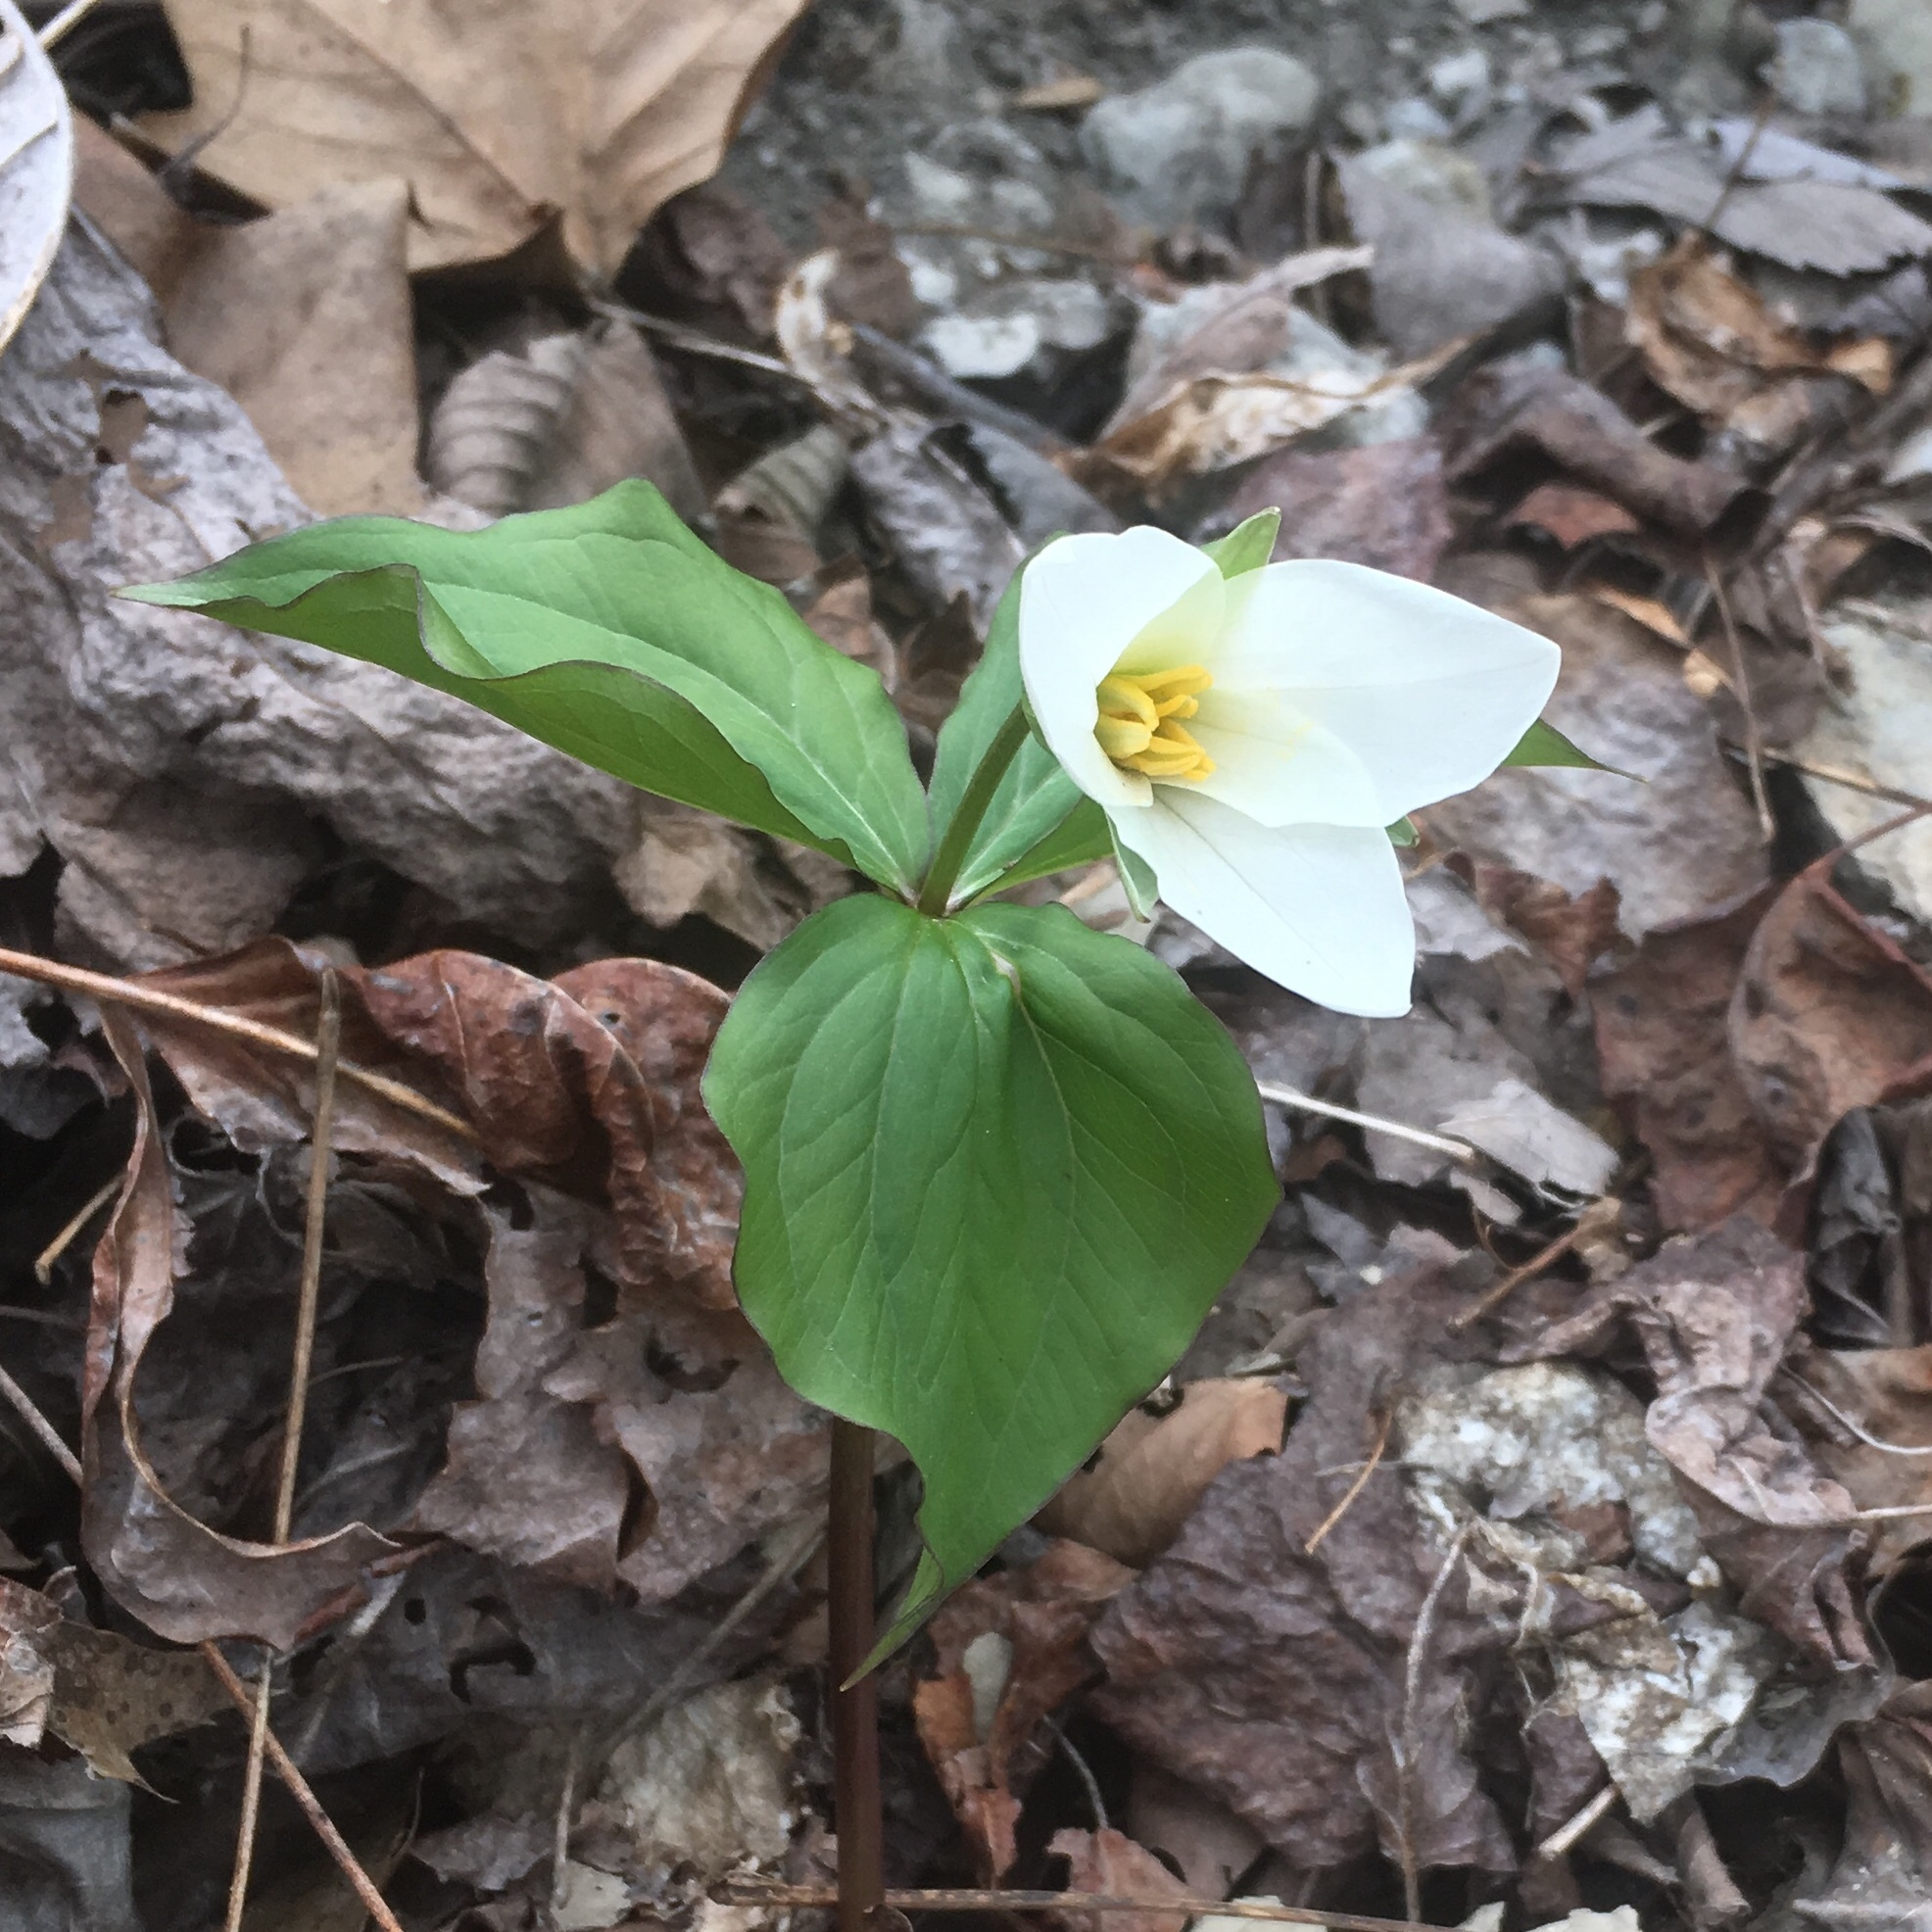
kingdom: Plantae
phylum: Tracheophyta
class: Liliopsida
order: Liliales
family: Melanthiaceae
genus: Trillium
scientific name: Trillium grandiflorum
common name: Great white trillium
